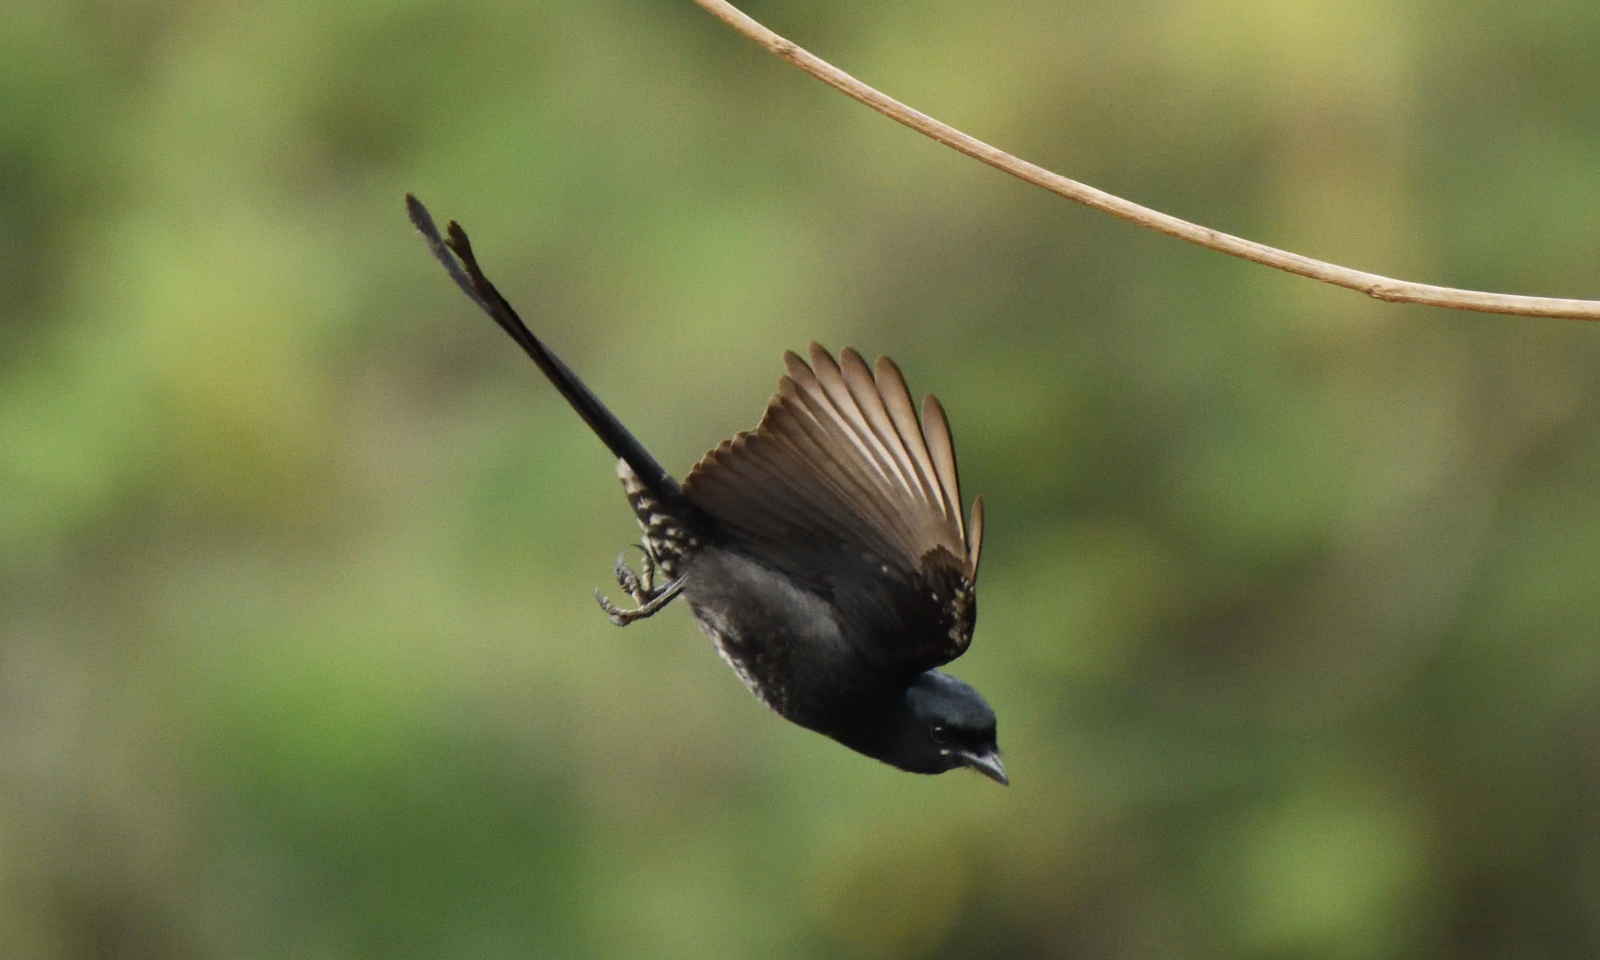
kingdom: Animalia
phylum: Chordata
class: Aves
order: Passeriformes
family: Dicruridae
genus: Dicrurus
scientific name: Dicrurus macrocercus
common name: Black drongo
